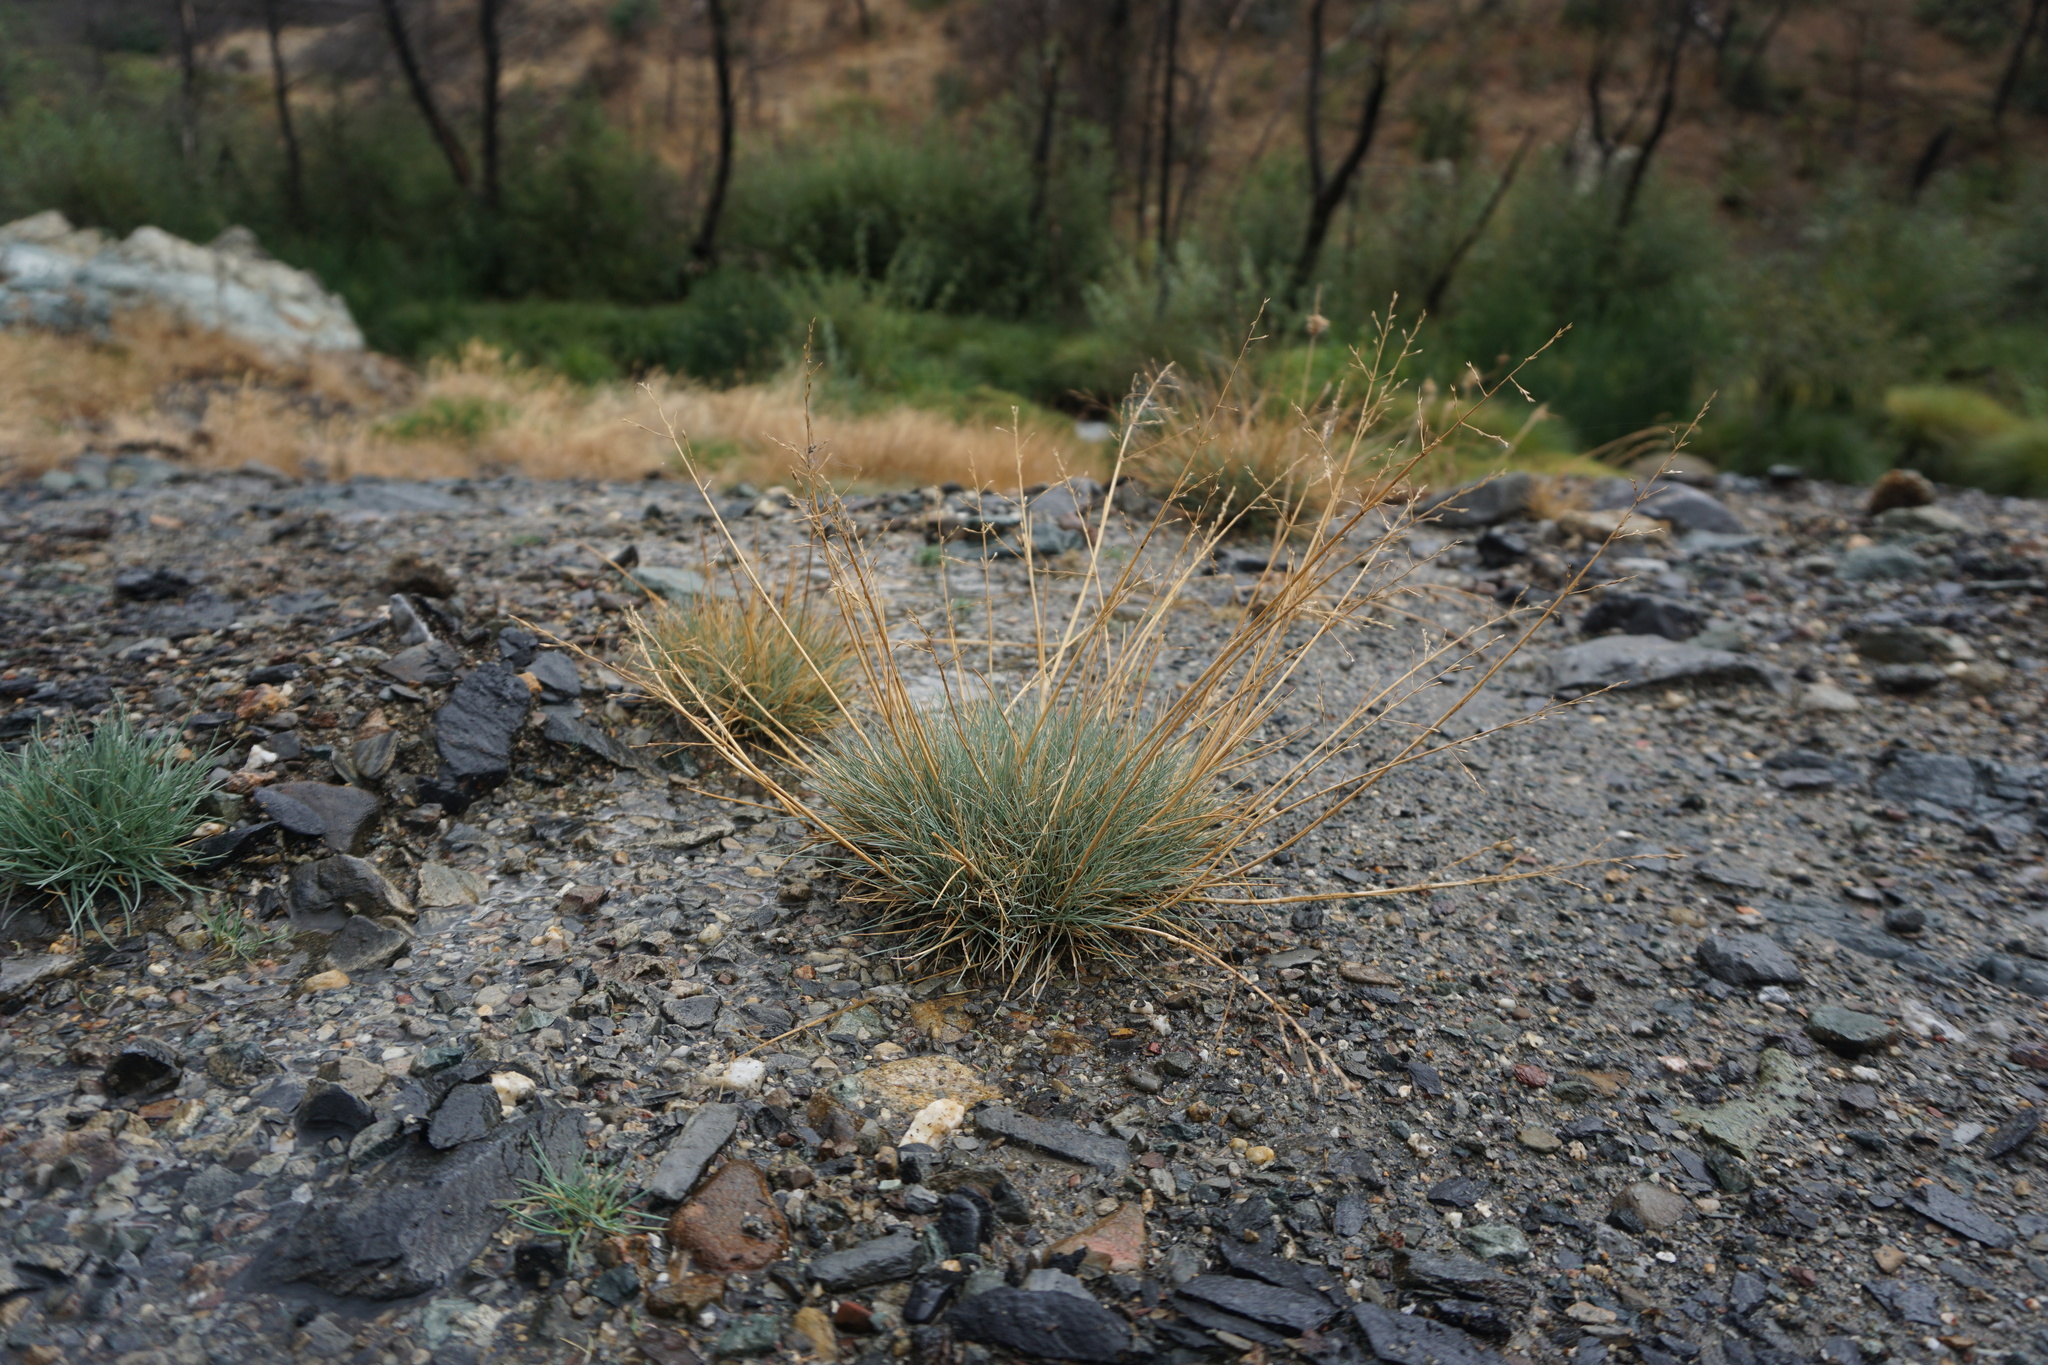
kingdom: Plantae
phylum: Tracheophyta
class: Liliopsida
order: Poales
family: Poaceae
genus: Puccinellia
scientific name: Puccinellia howellii
